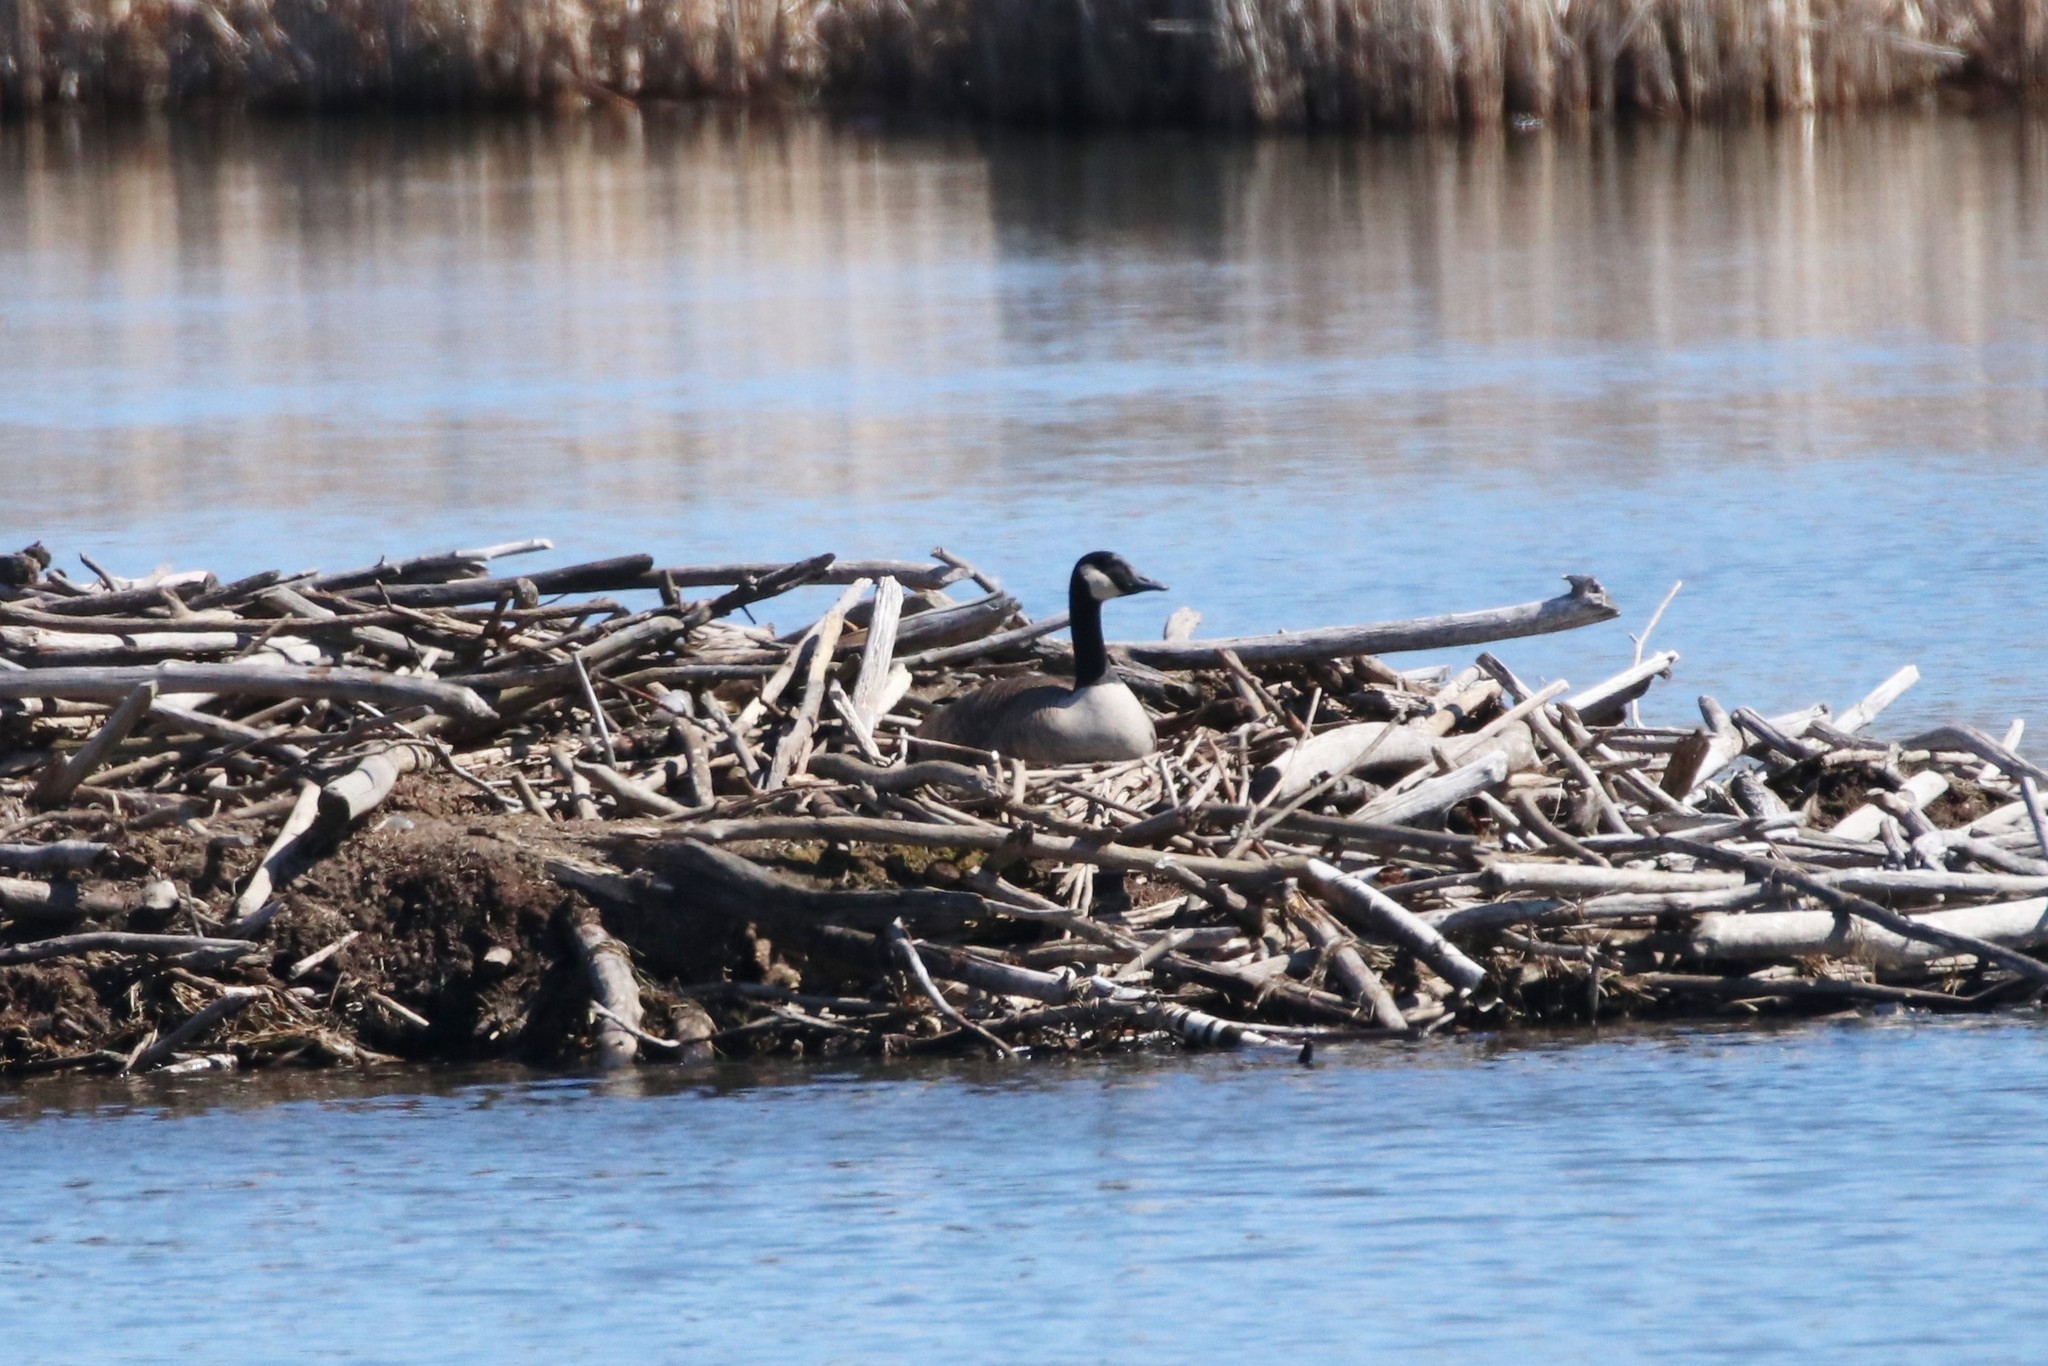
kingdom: Animalia
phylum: Chordata
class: Aves
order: Anseriformes
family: Anatidae
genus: Branta
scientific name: Branta canadensis
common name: Canada goose
